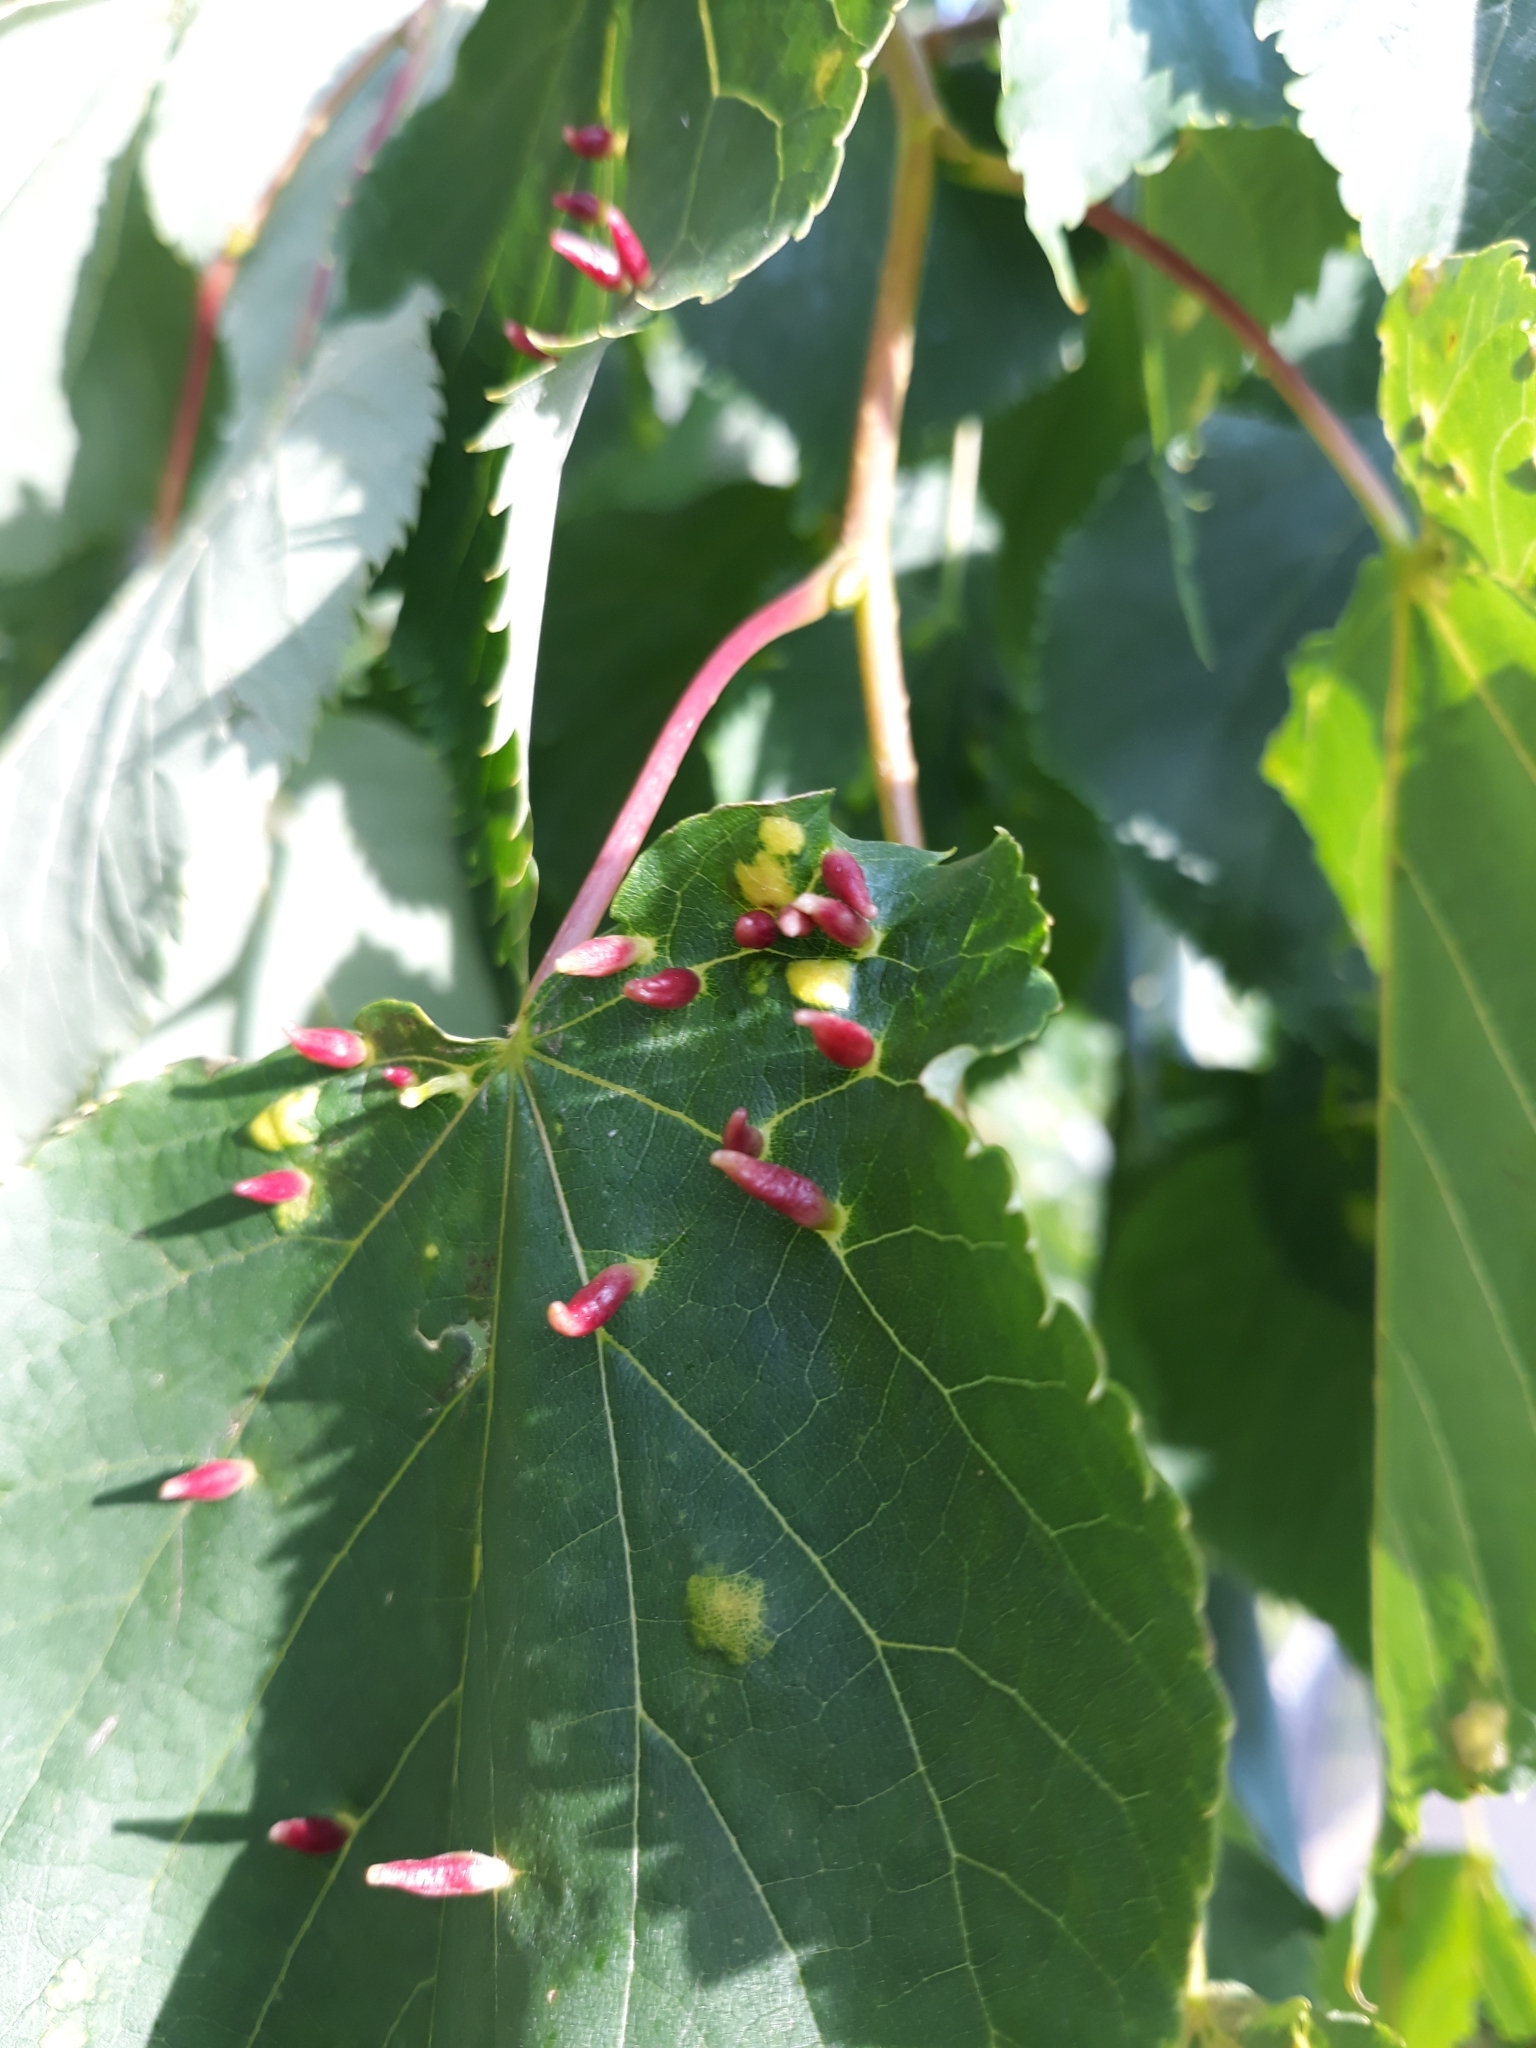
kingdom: Animalia
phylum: Arthropoda
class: Arachnida
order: Trombidiformes
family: Eriophyidae
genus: Eriophyes
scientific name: Eriophyes tiliae
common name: Red nail gall mite
